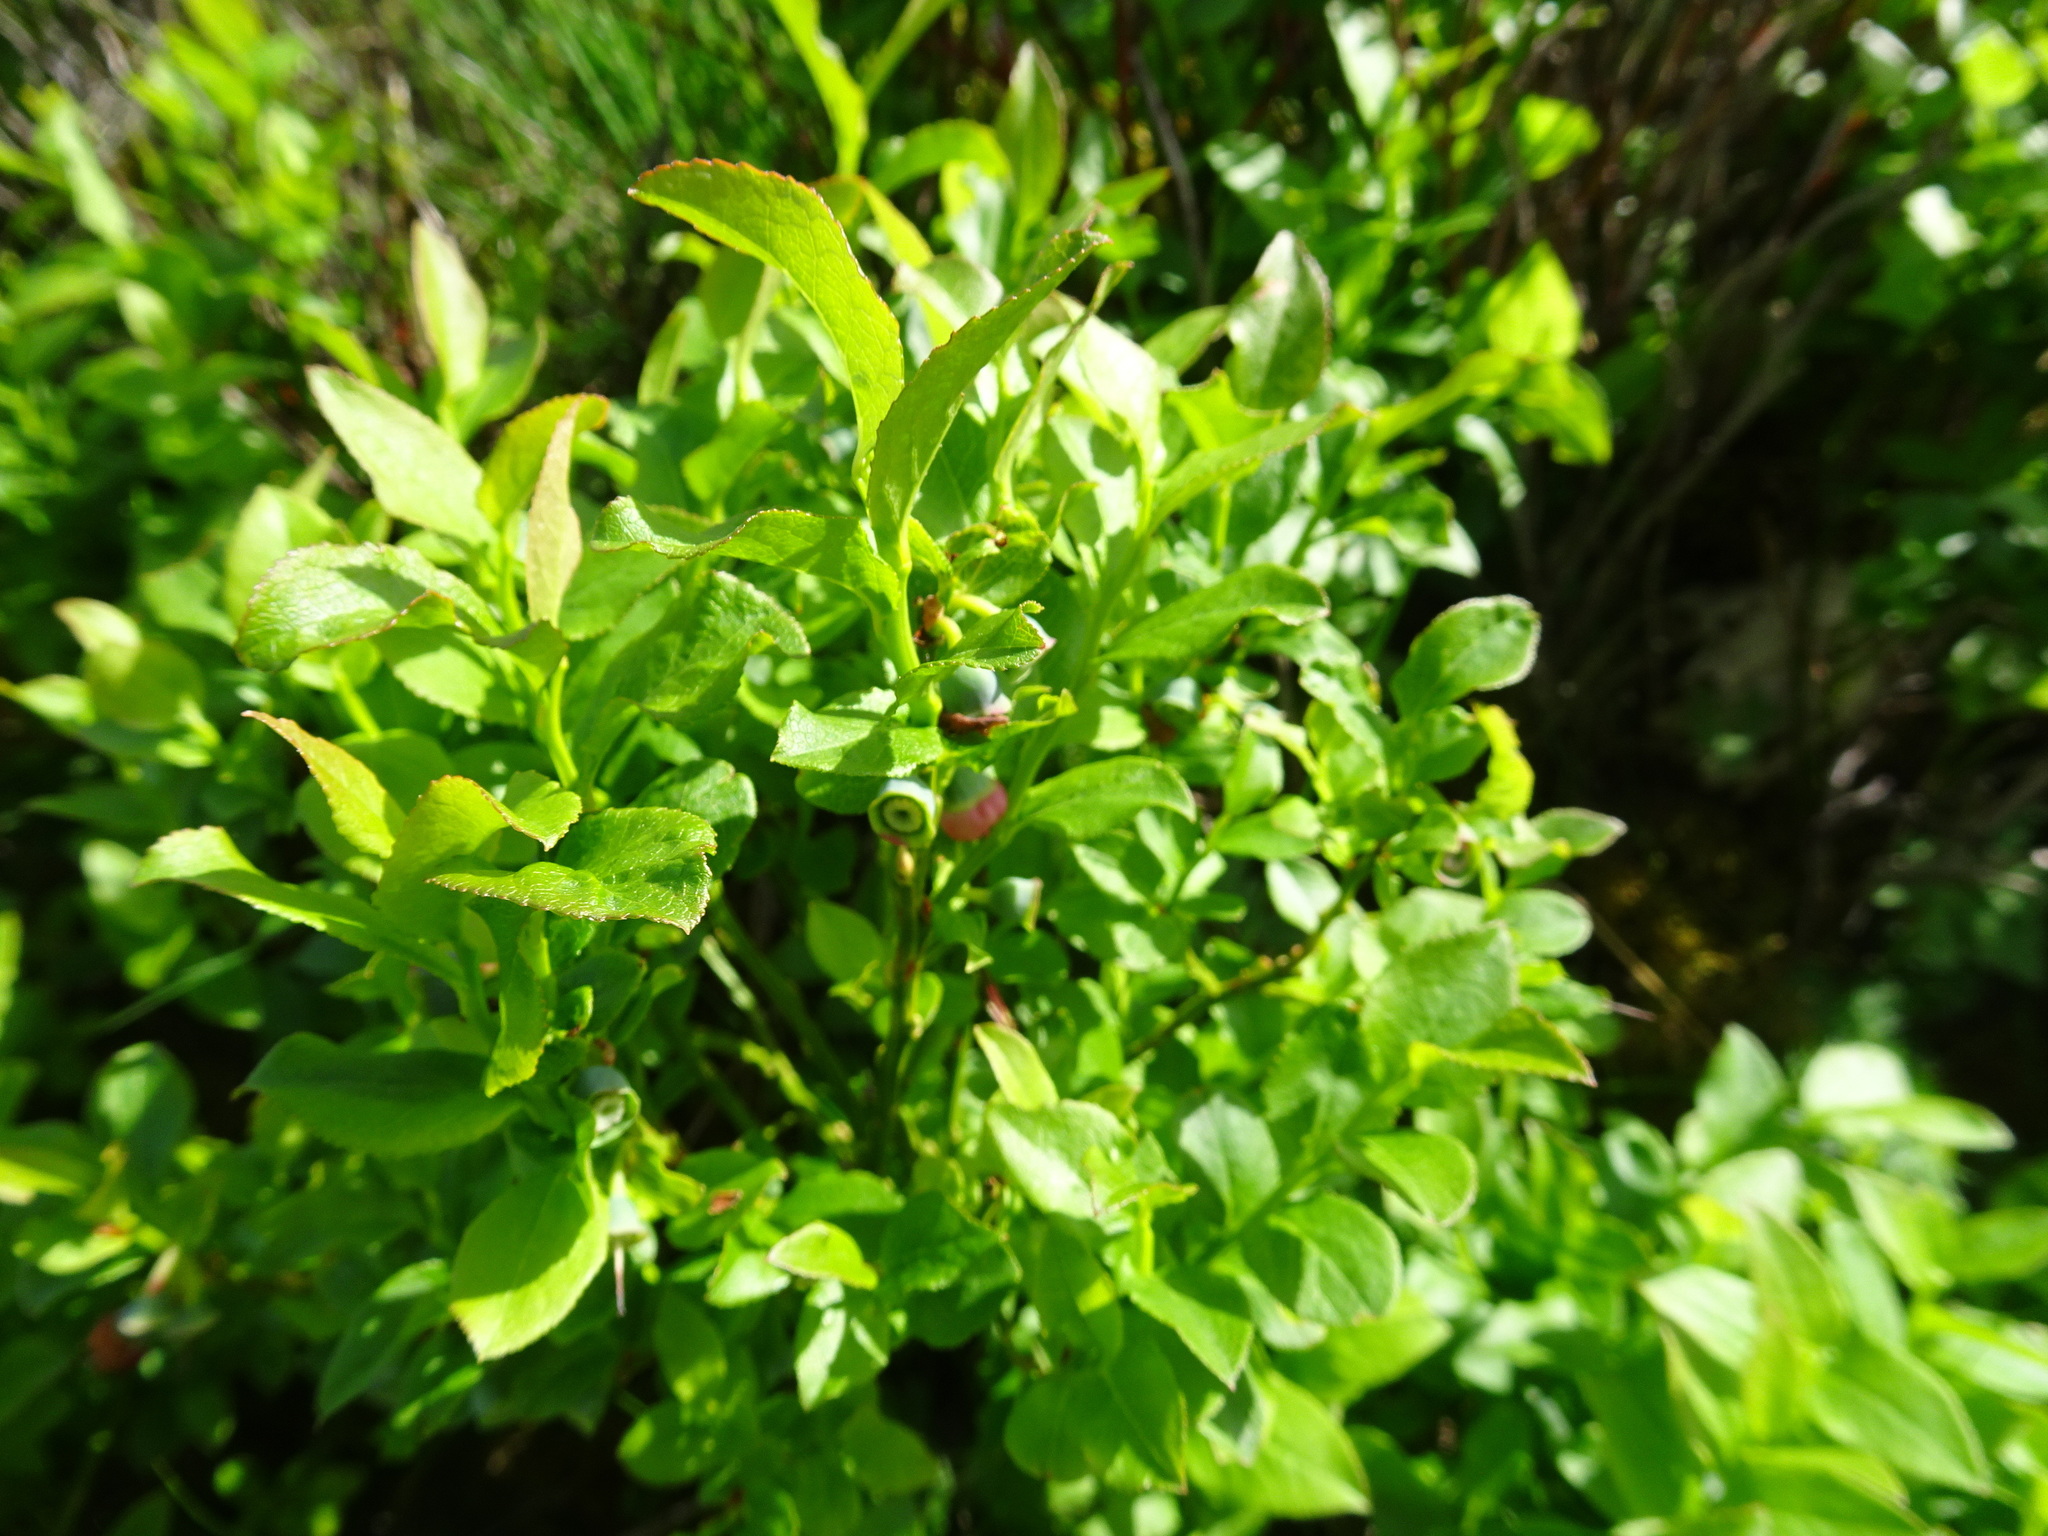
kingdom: Plantae
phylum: Tracheophyta
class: Magnoliopsida
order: Ericales
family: Ericaceae
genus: Vaccinium
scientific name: Vaccinium myrtillus
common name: Bilberry
